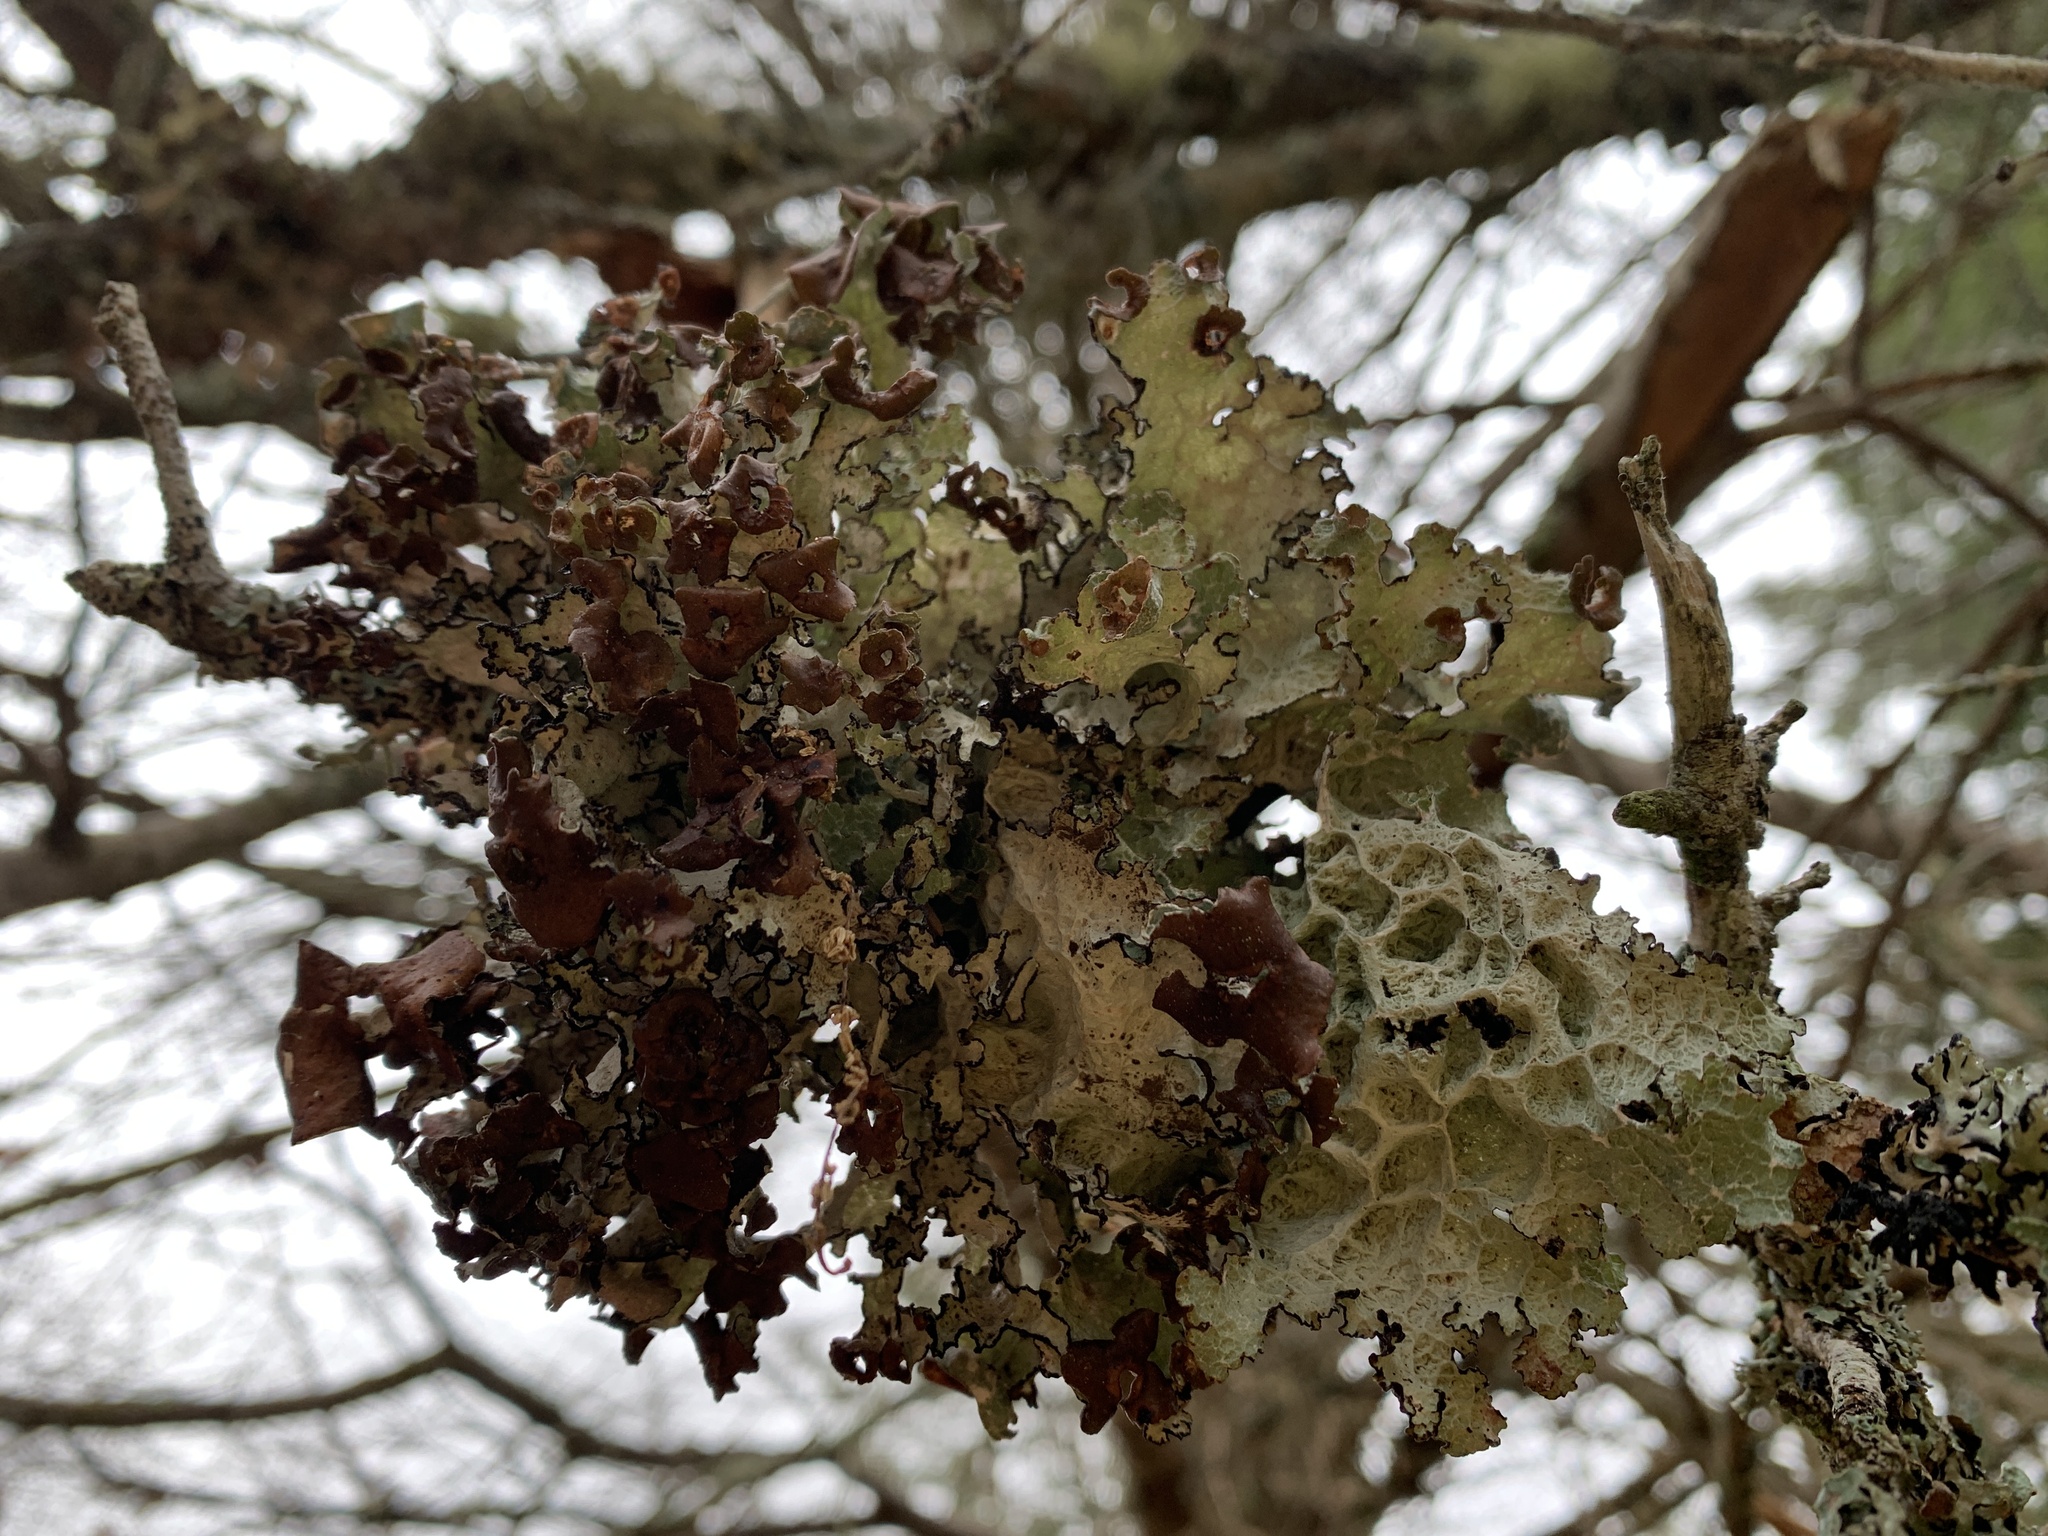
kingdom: Fungi
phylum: Ascomycota
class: Lecanoromycetes
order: Lecanorales
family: Parmeliaceae
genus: Platismatia
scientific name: Platismatia tuckermanii
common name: Crumpled rag lichen
